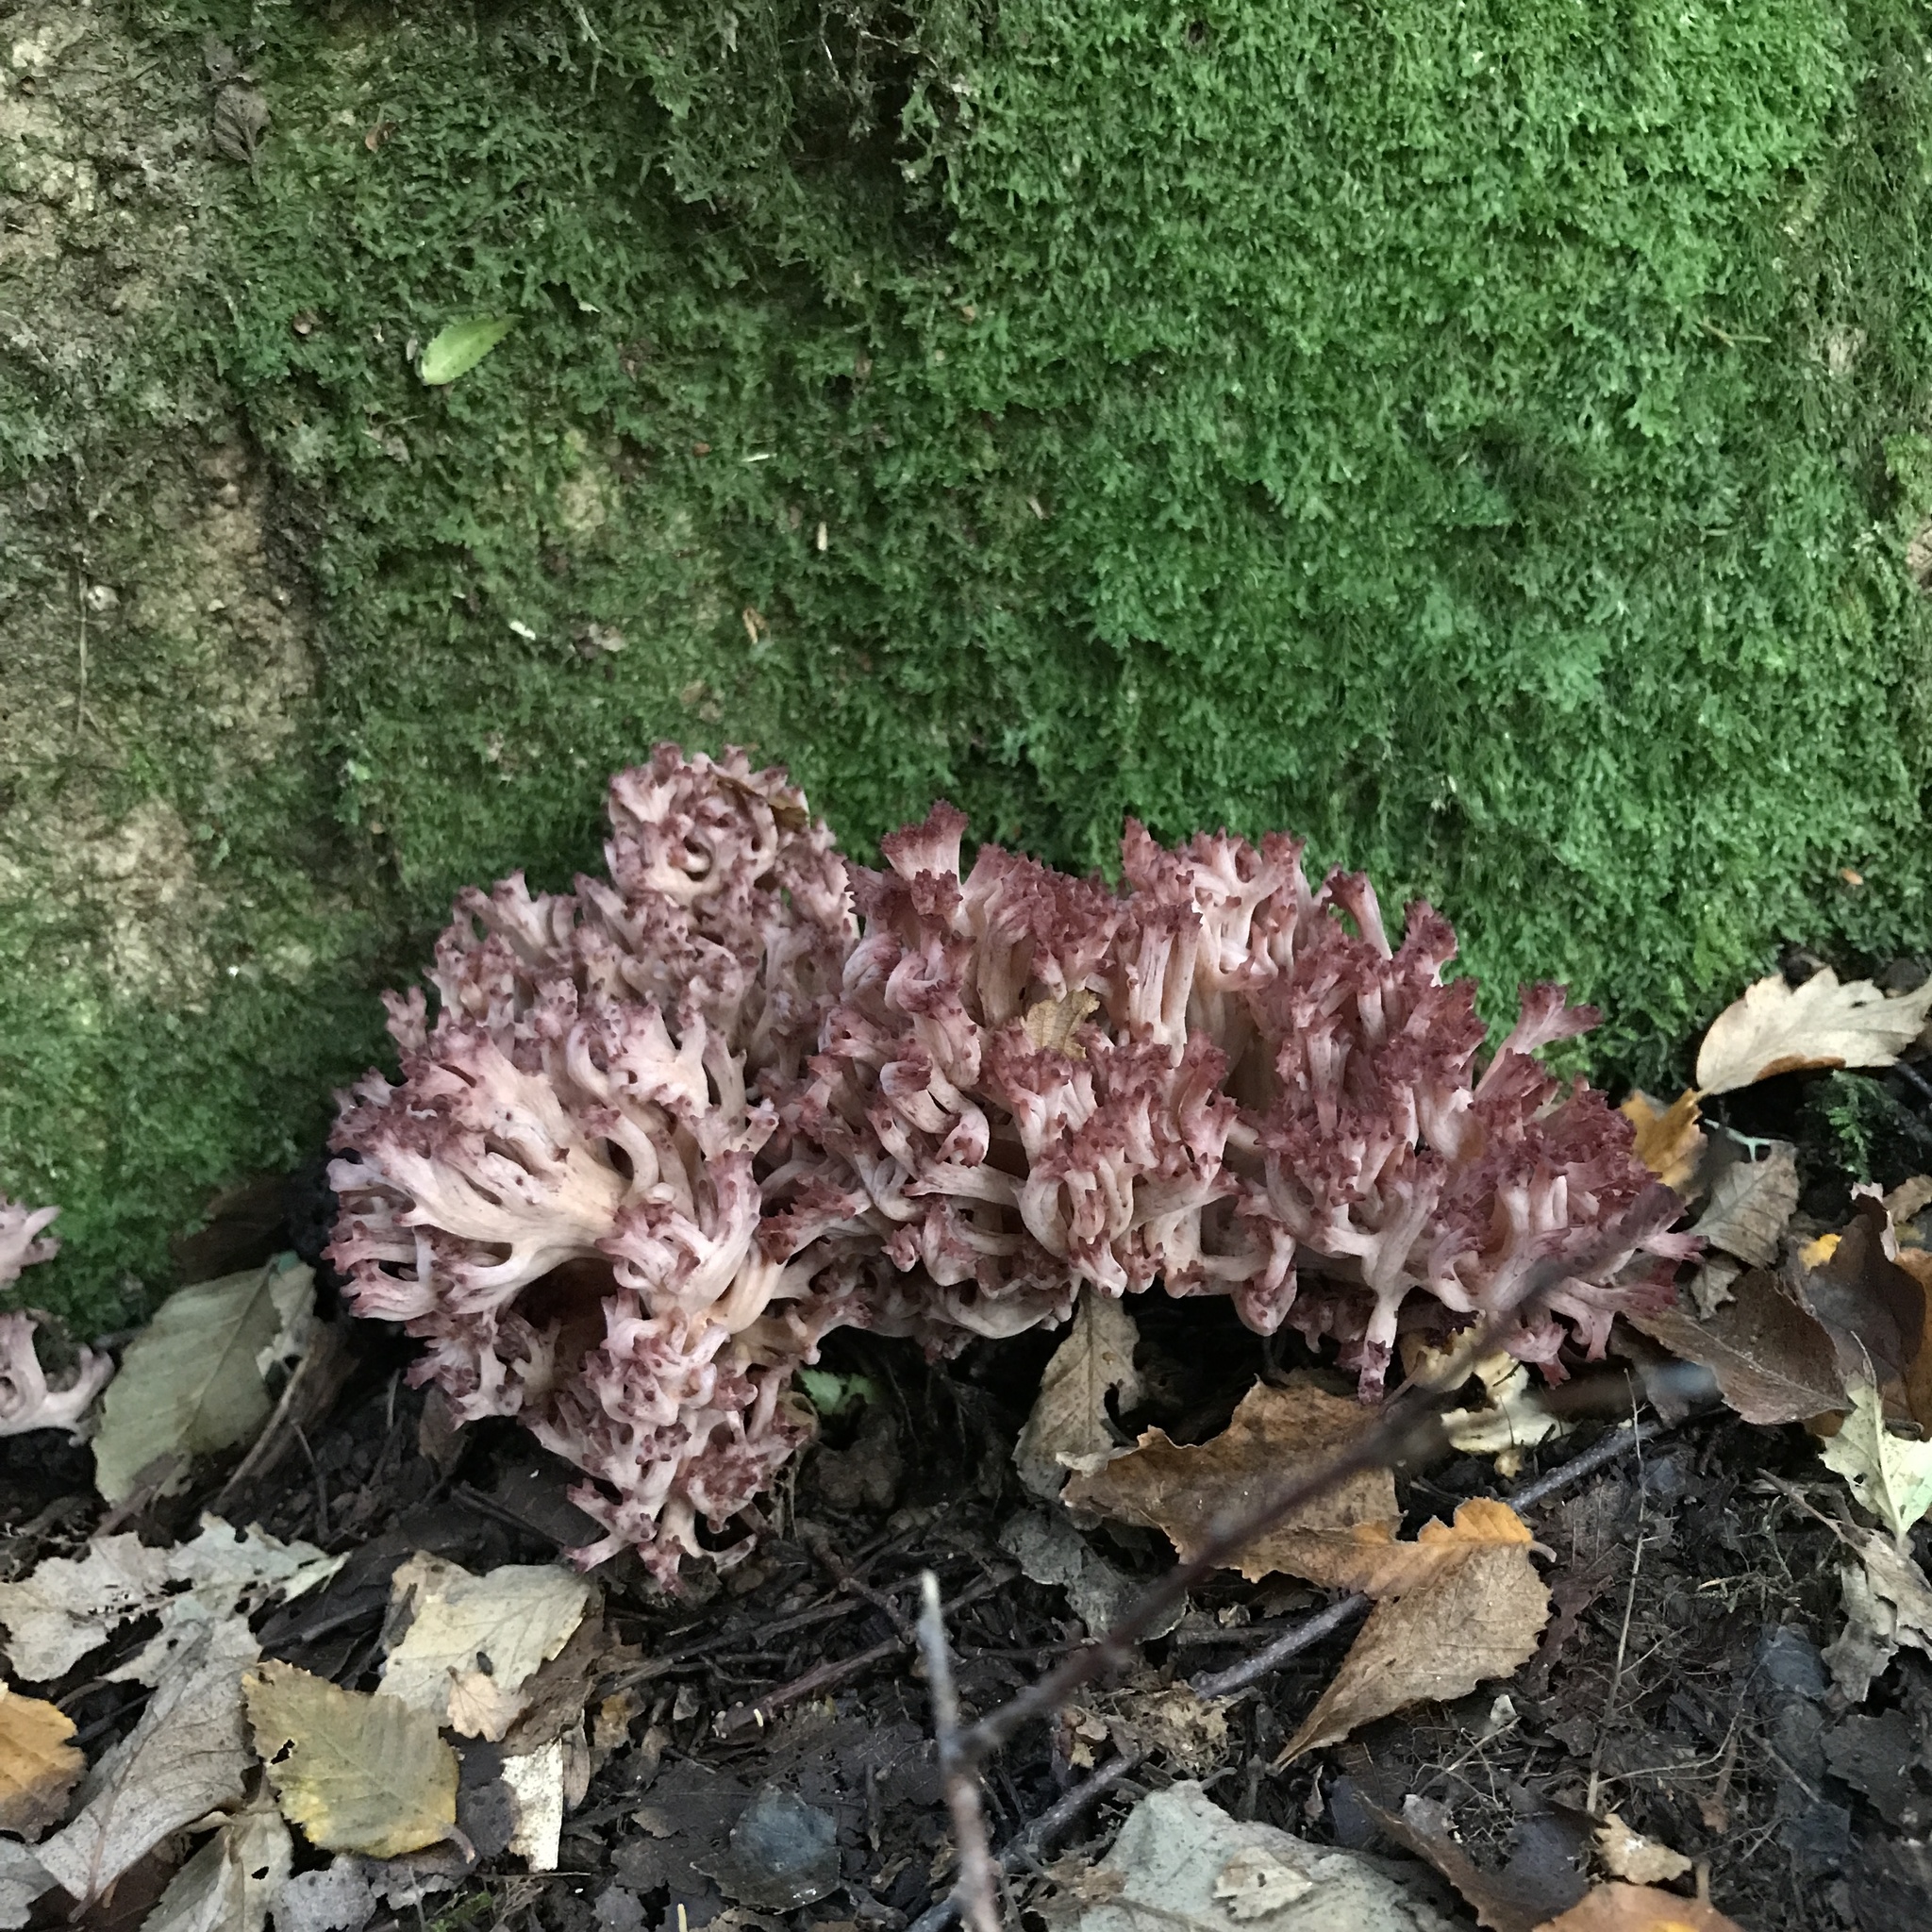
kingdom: Fungi
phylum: Basidiomycota
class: Agaricomycetes
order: Gomphales
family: Gomphaceae
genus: Ramaria
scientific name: Ramaria botrytis
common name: Rosso coral
